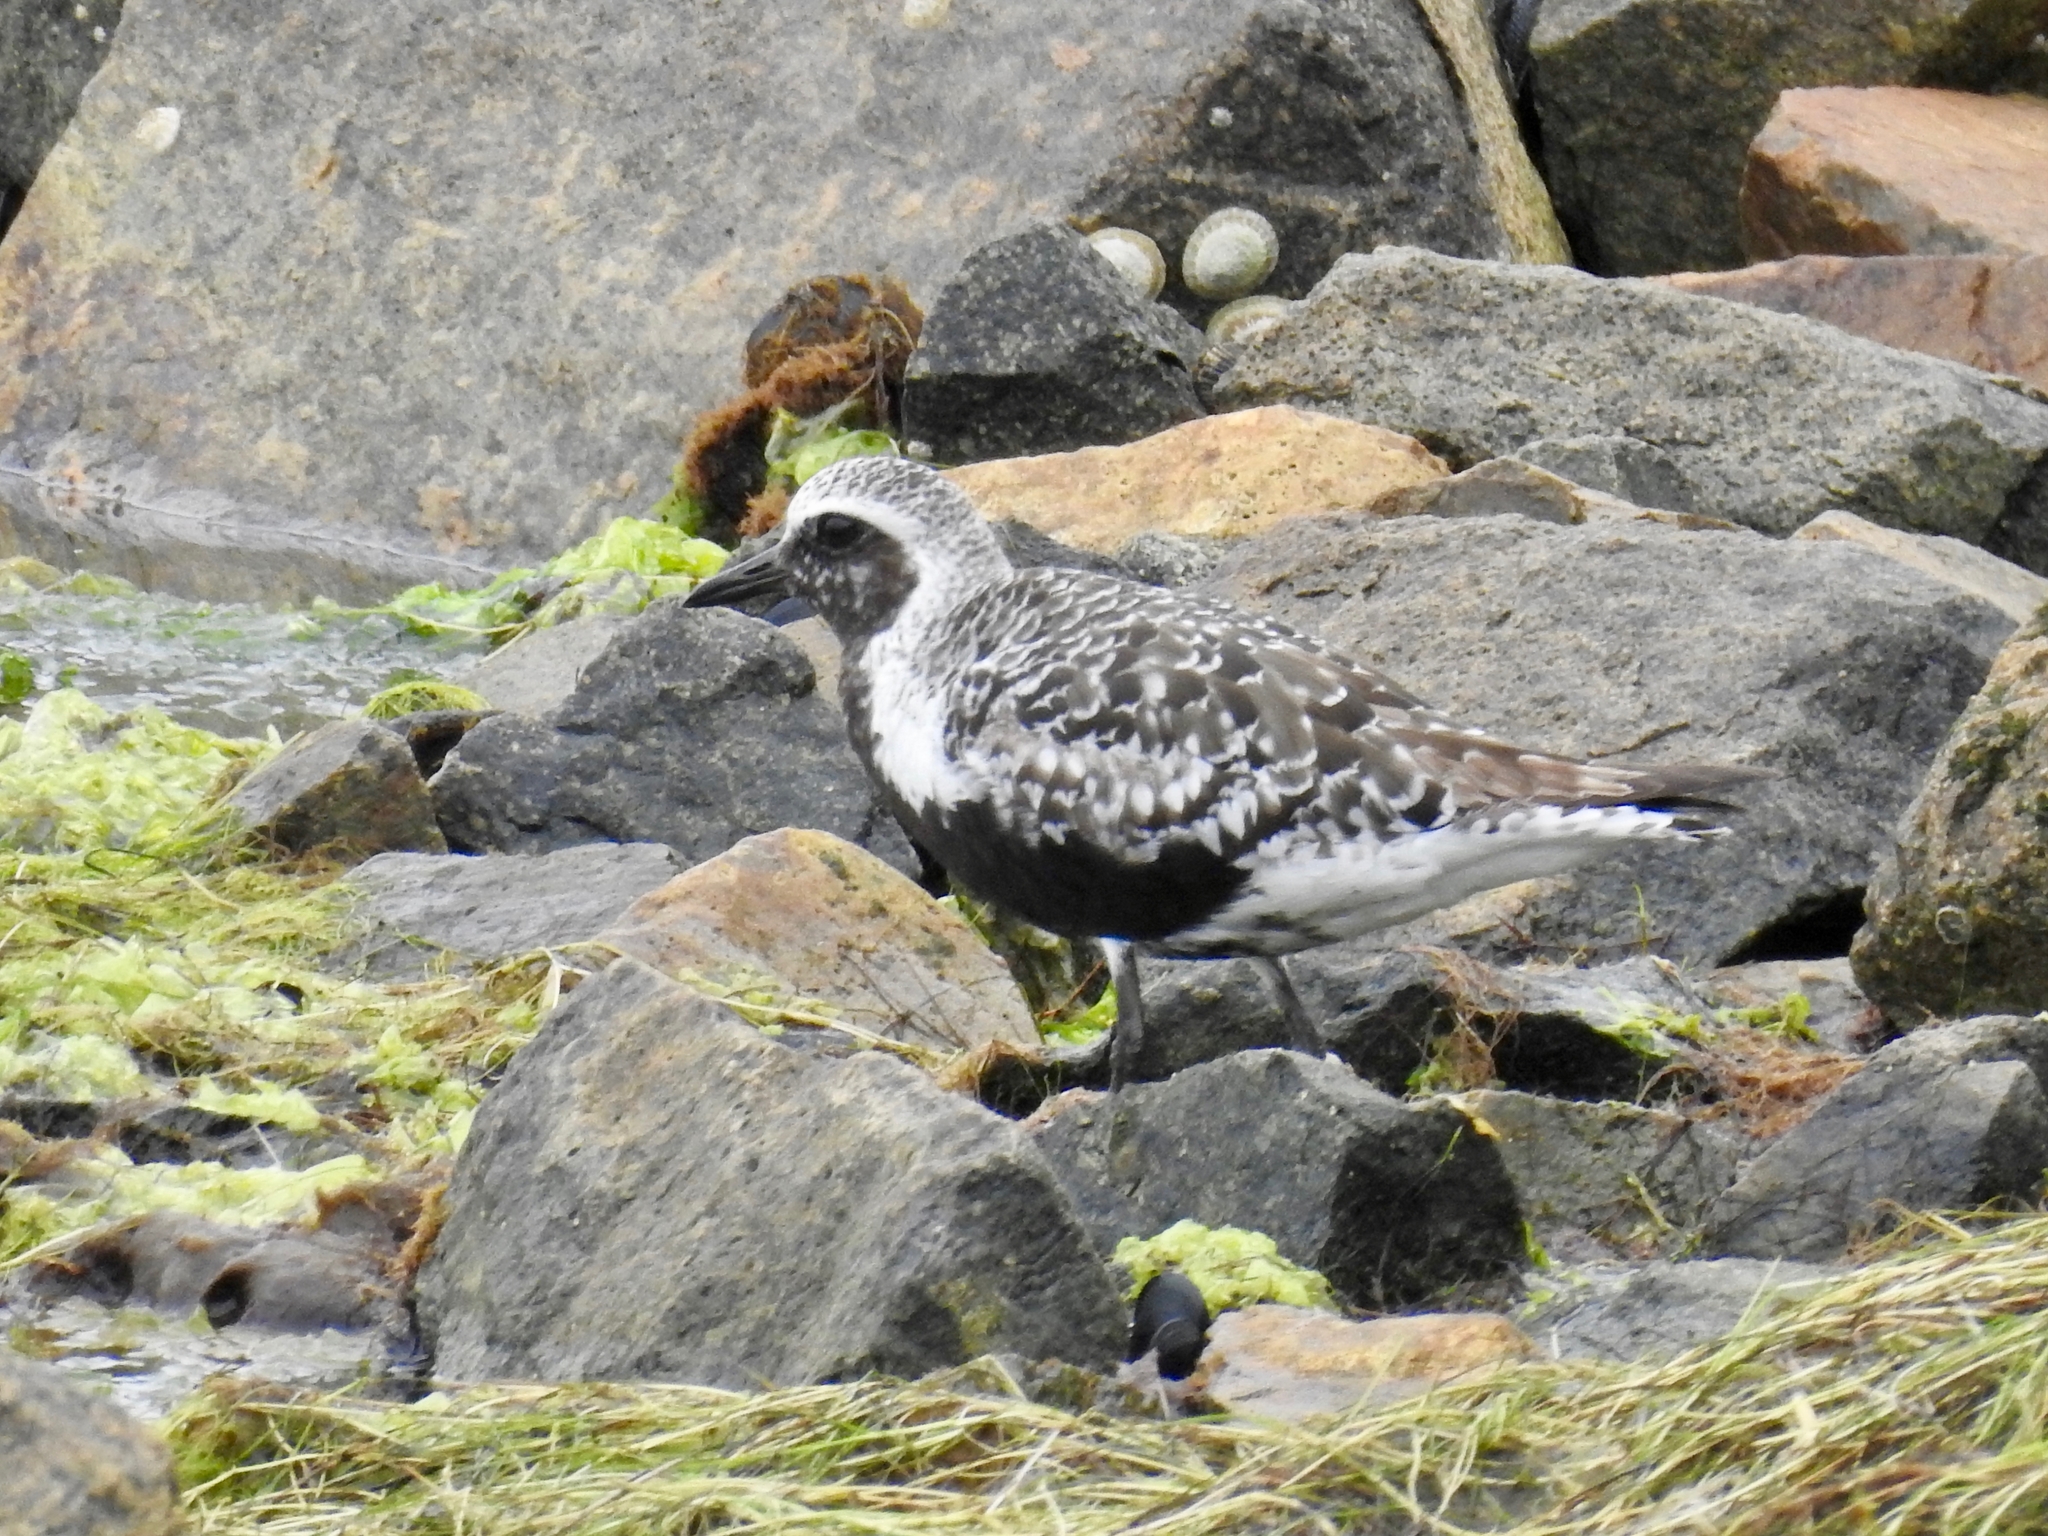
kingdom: Animalia
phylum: Chordata
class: Aves
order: Charadriiformes
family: Charadriidae
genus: Pluvialis
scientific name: Pluvialis squatarola
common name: Grey plover
